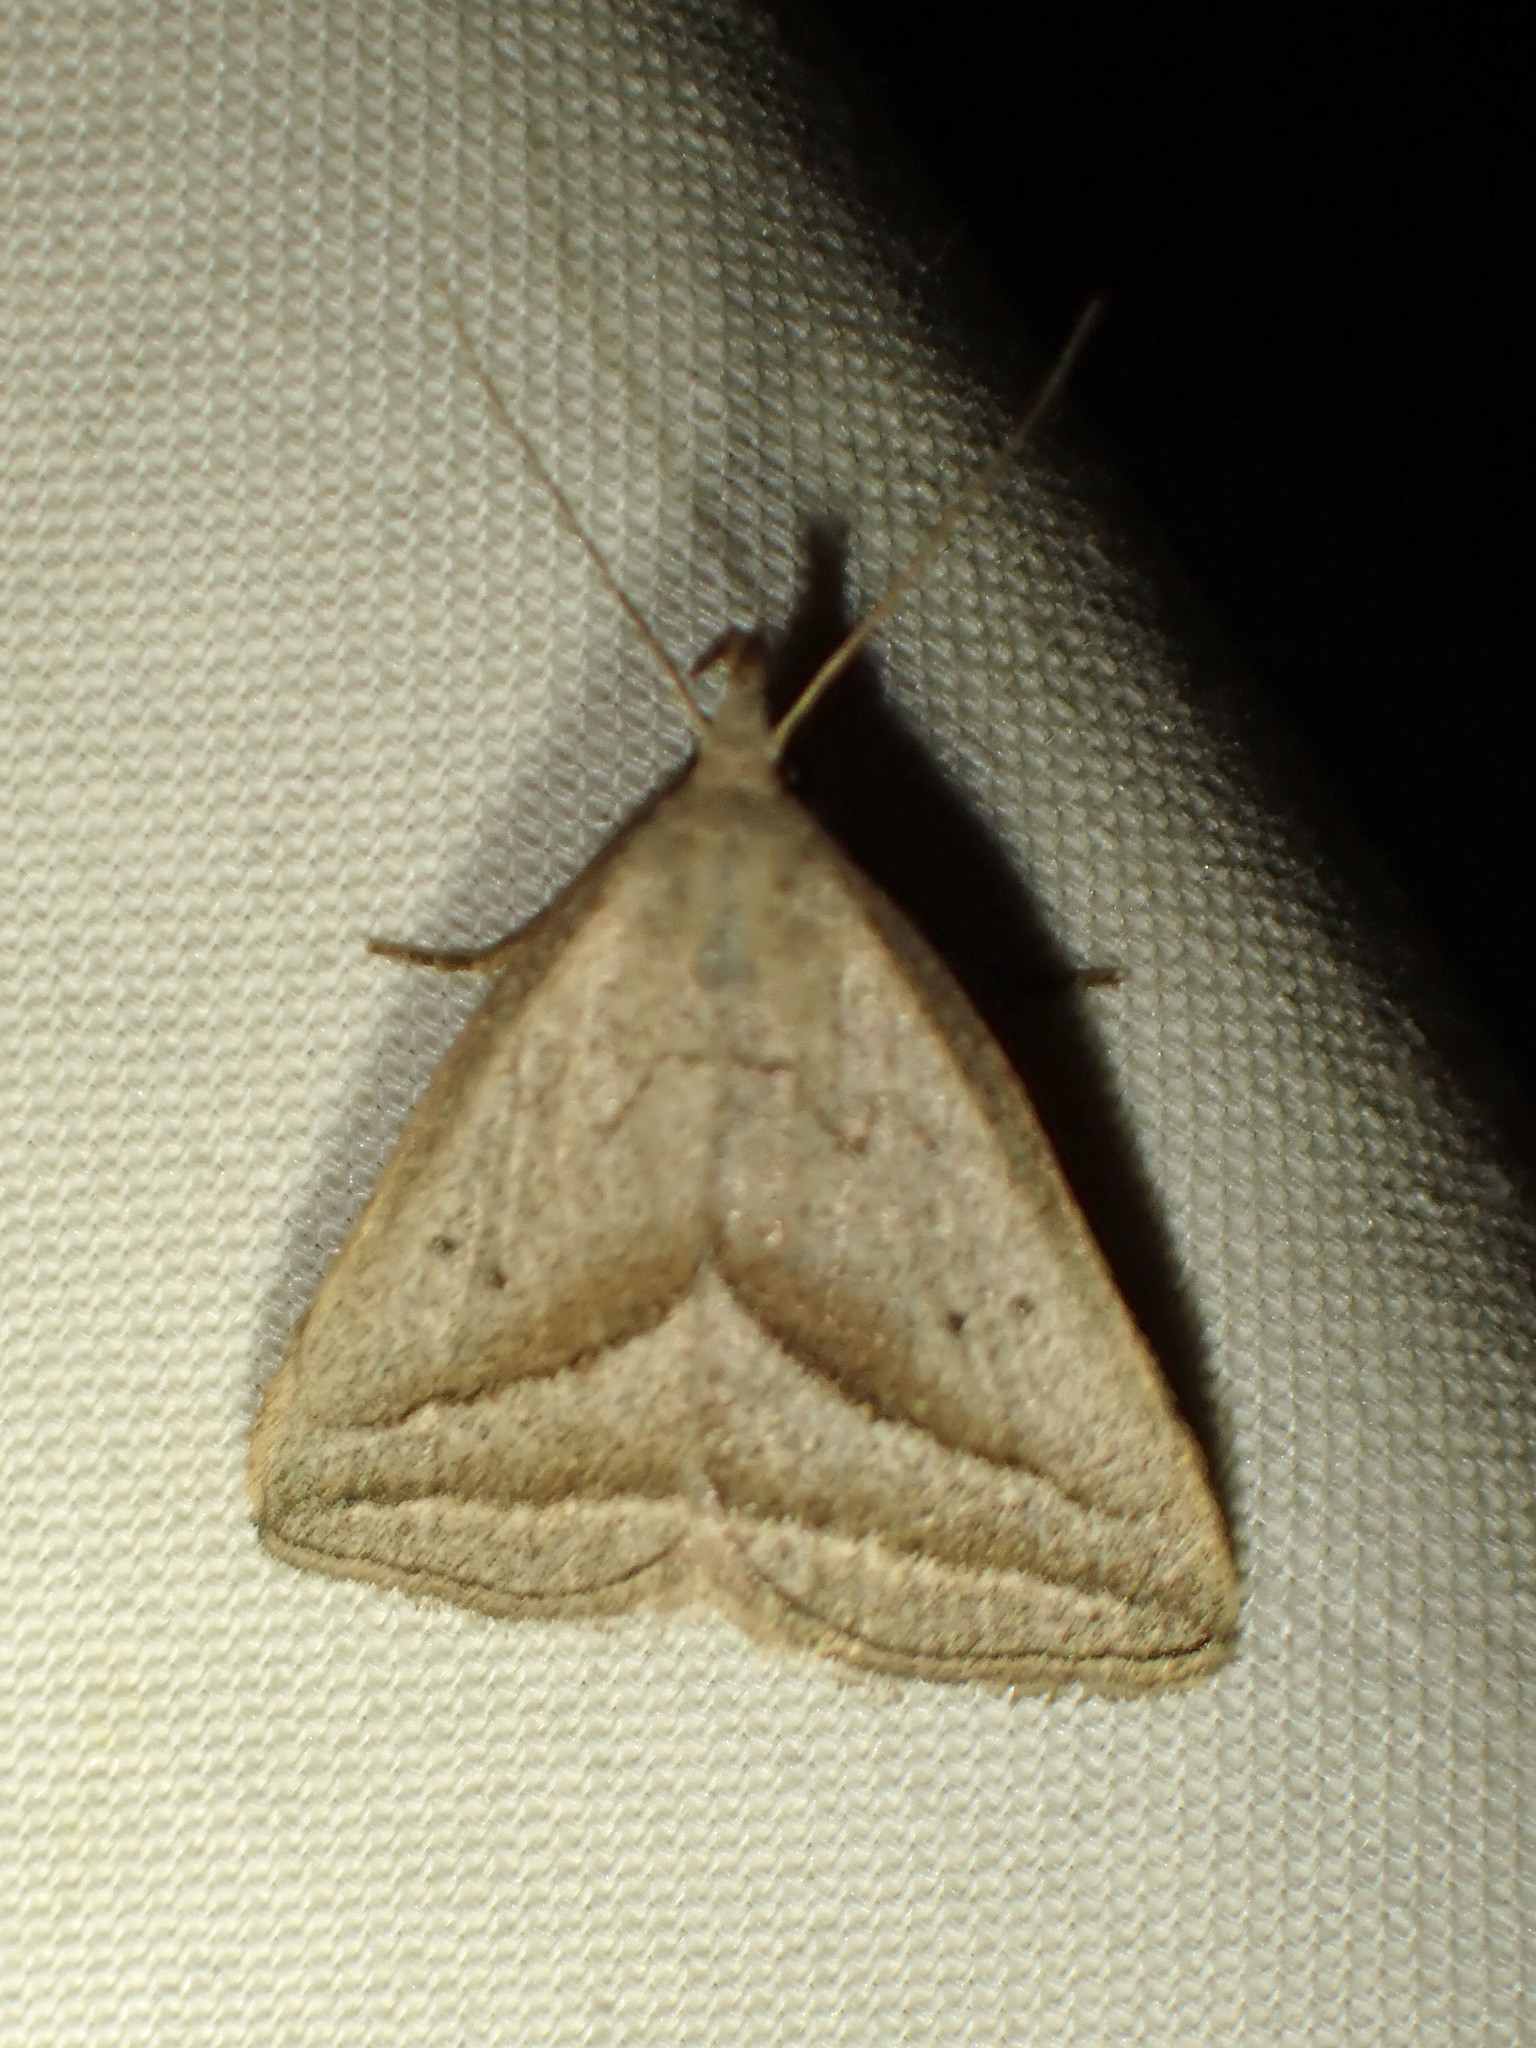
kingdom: Animalia
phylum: Arthropoda
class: Insecta
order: Lepidoptera
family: Erebidae
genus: Macrochilo
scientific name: Macrochilo absorptalis
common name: Slant-lined owlet
